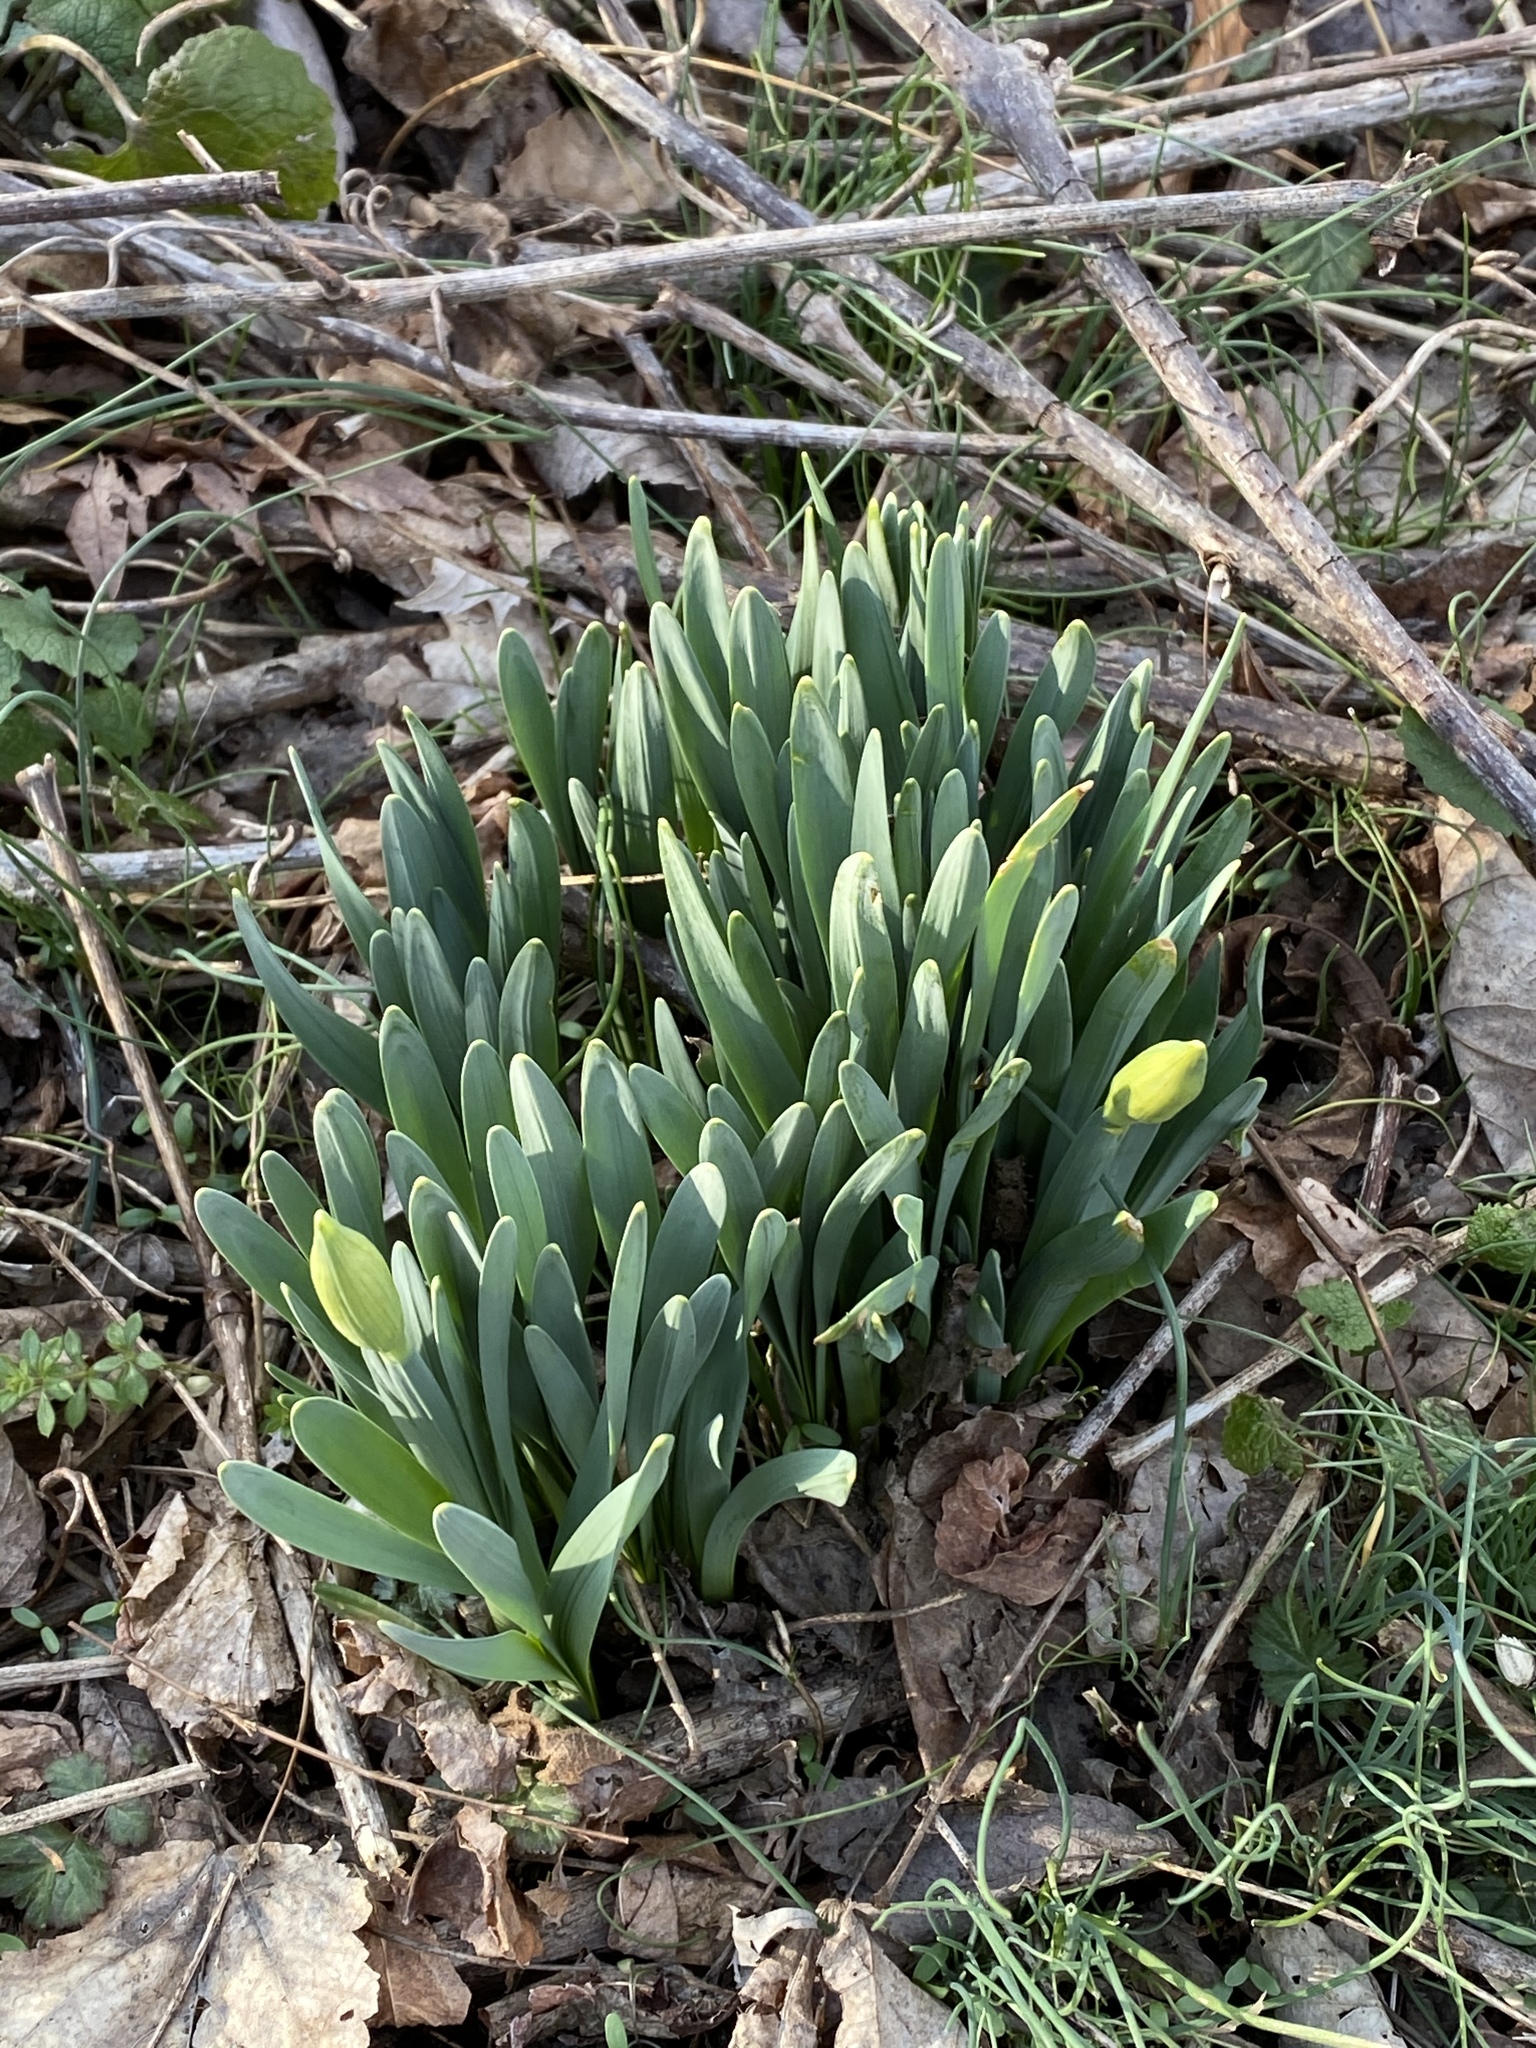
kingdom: Plantae
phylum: Tracheophyta
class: Liliopsida
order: Asparagales
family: Amaryllidaceae
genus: Narcissus
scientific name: Narcissus
